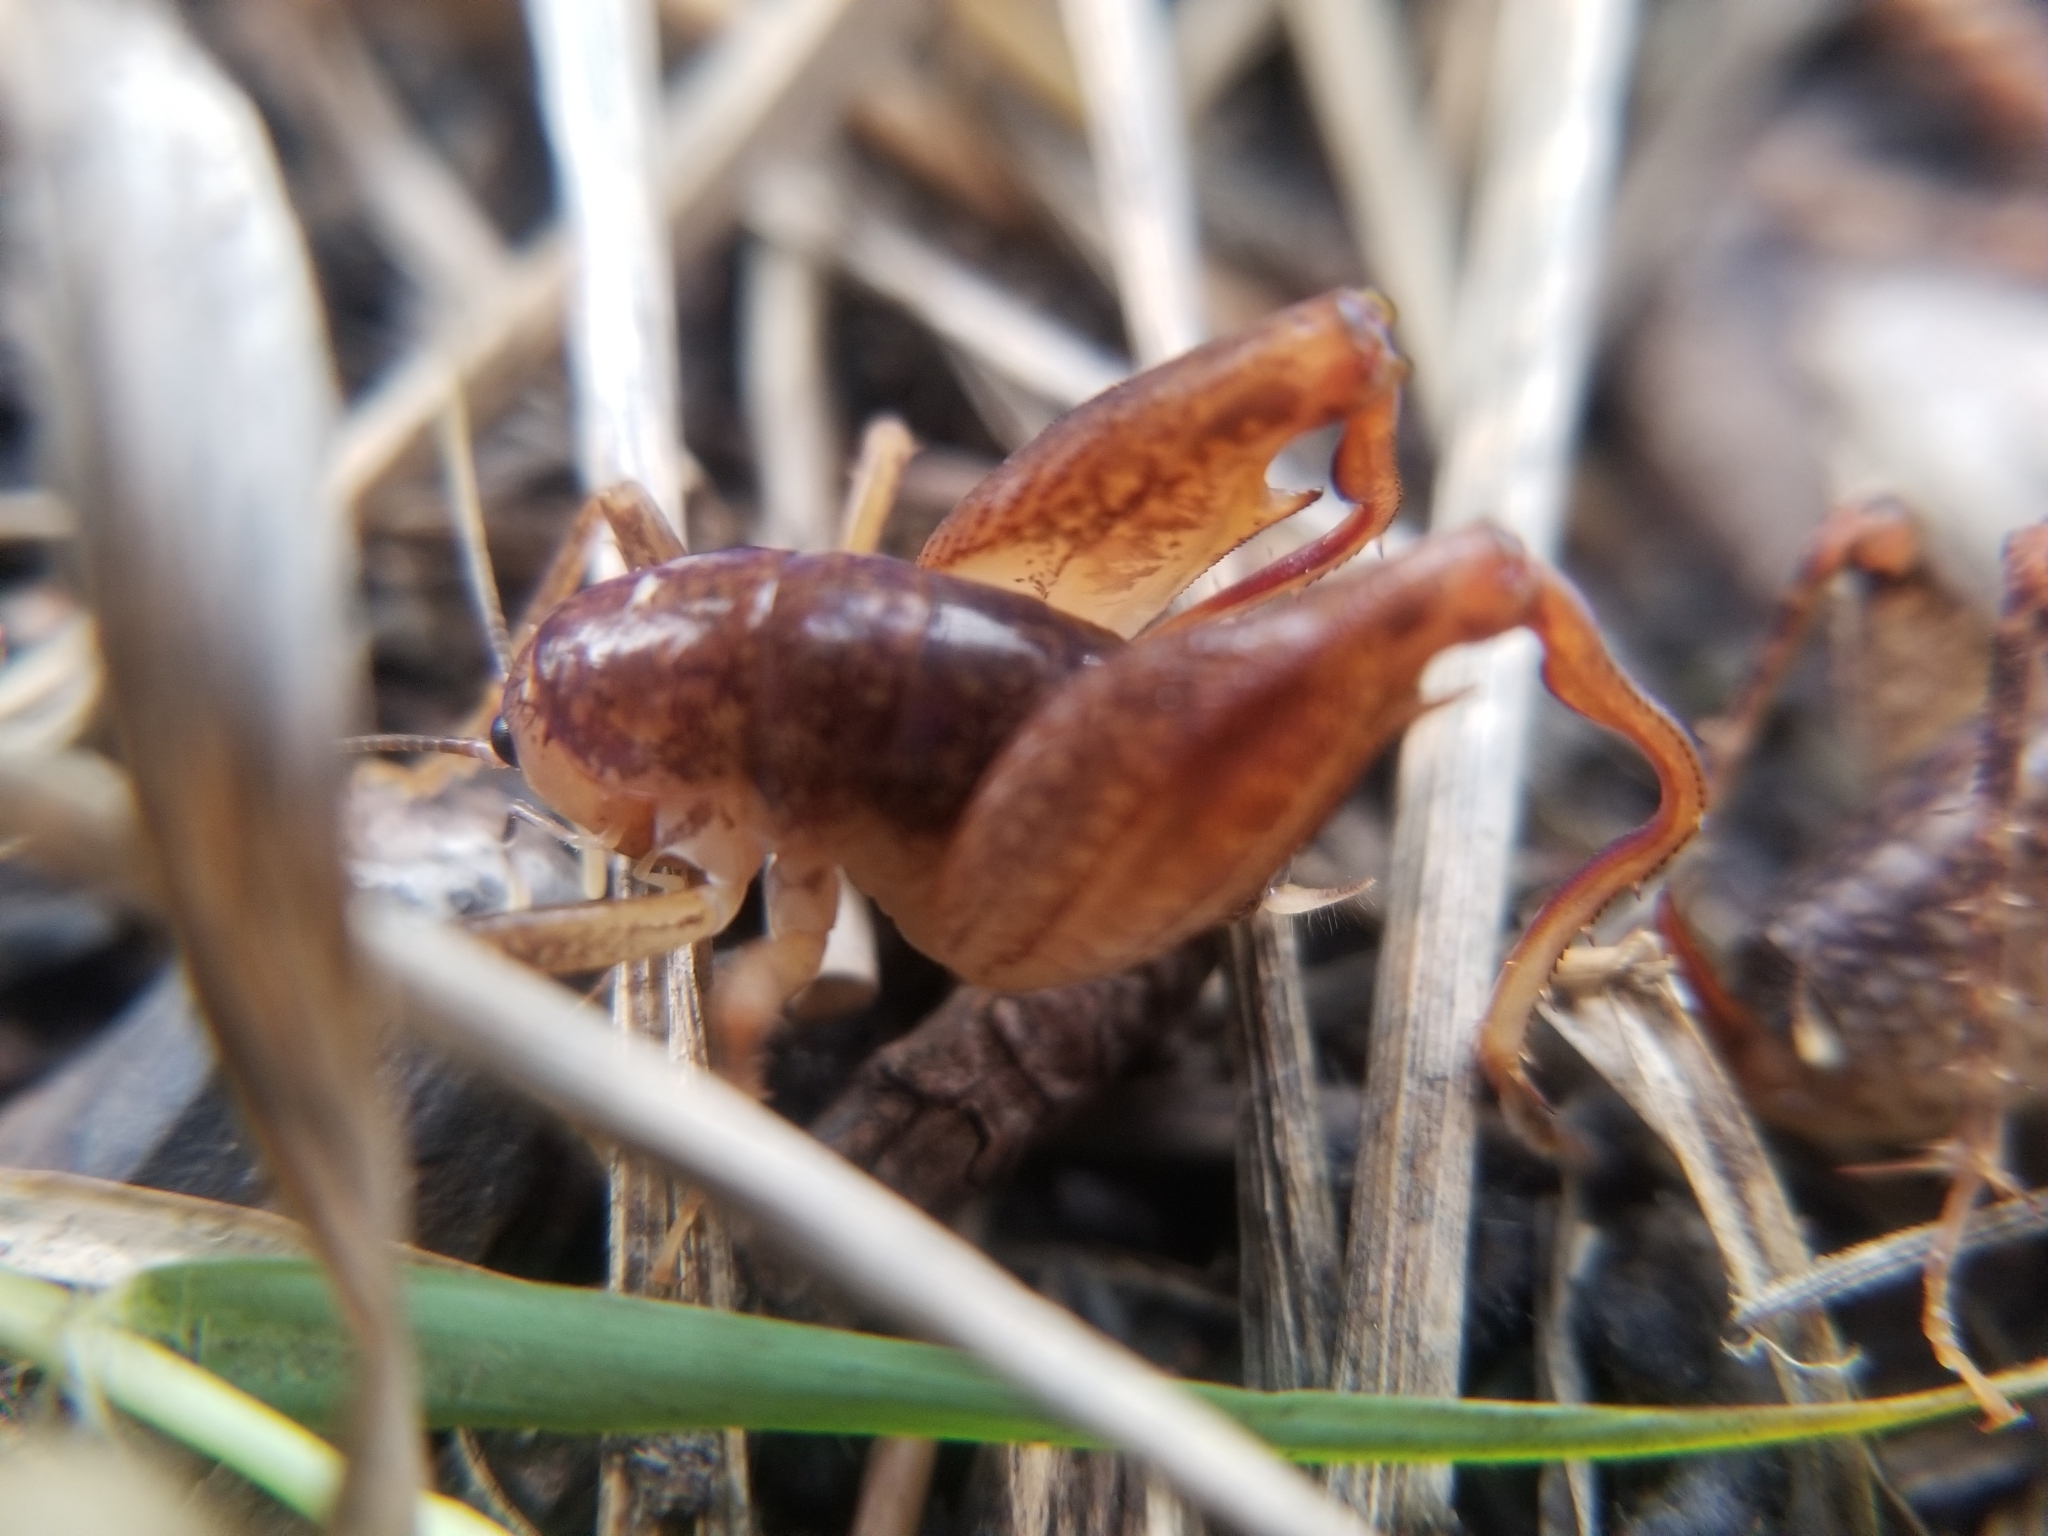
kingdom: Animalia
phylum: Arthropoda
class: Insecta
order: Orthoptera
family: Rhaphidophoridae
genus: Pristoceuthophilus
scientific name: Pristoceuthophilus
